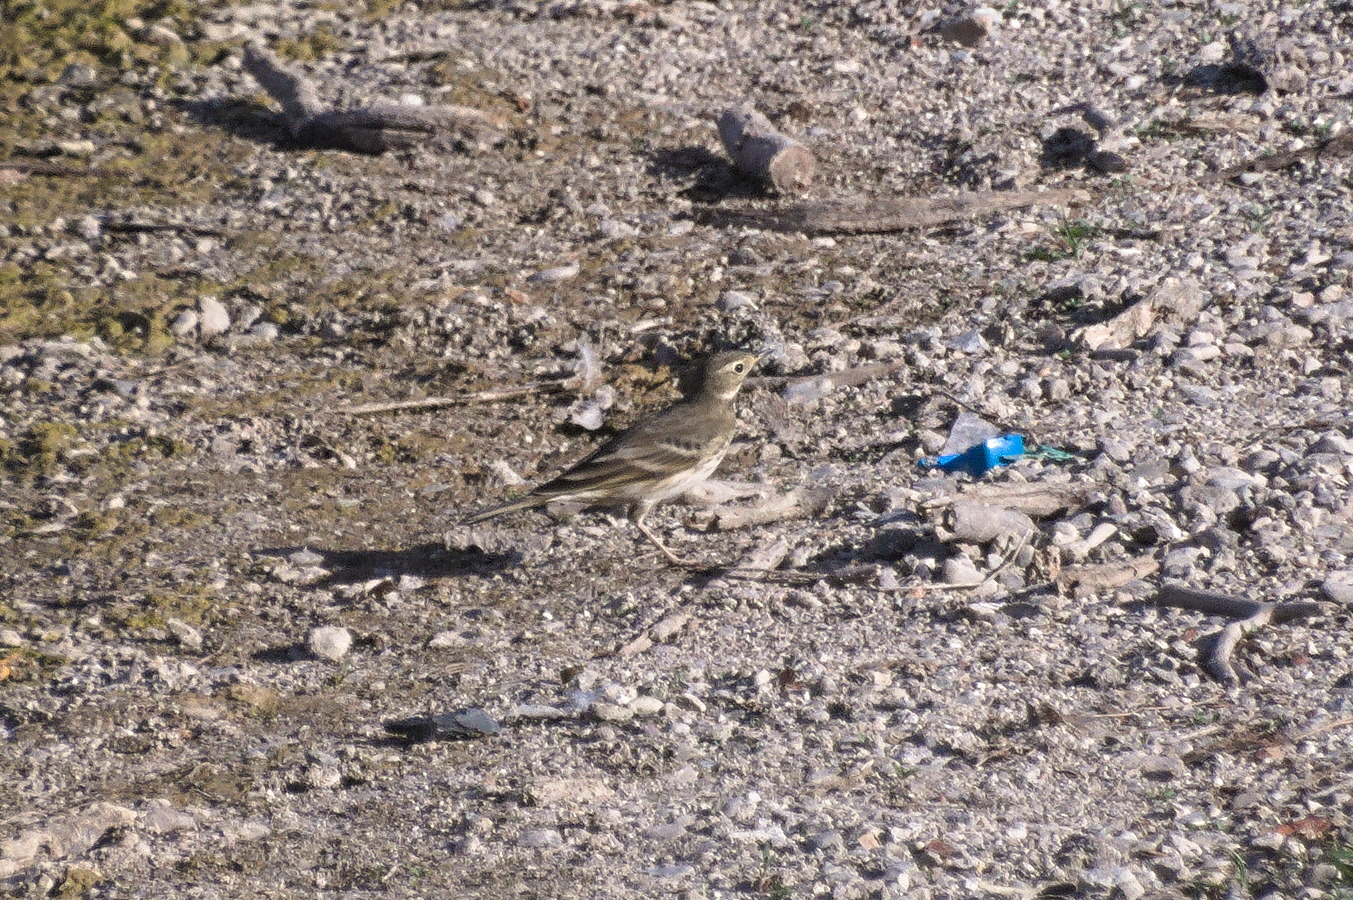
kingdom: Animalia
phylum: Chordata
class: Aves
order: Passeriformes
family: Motacillidae
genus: Anthus
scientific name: Anthus rubescens
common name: Buff-bellied pipit
